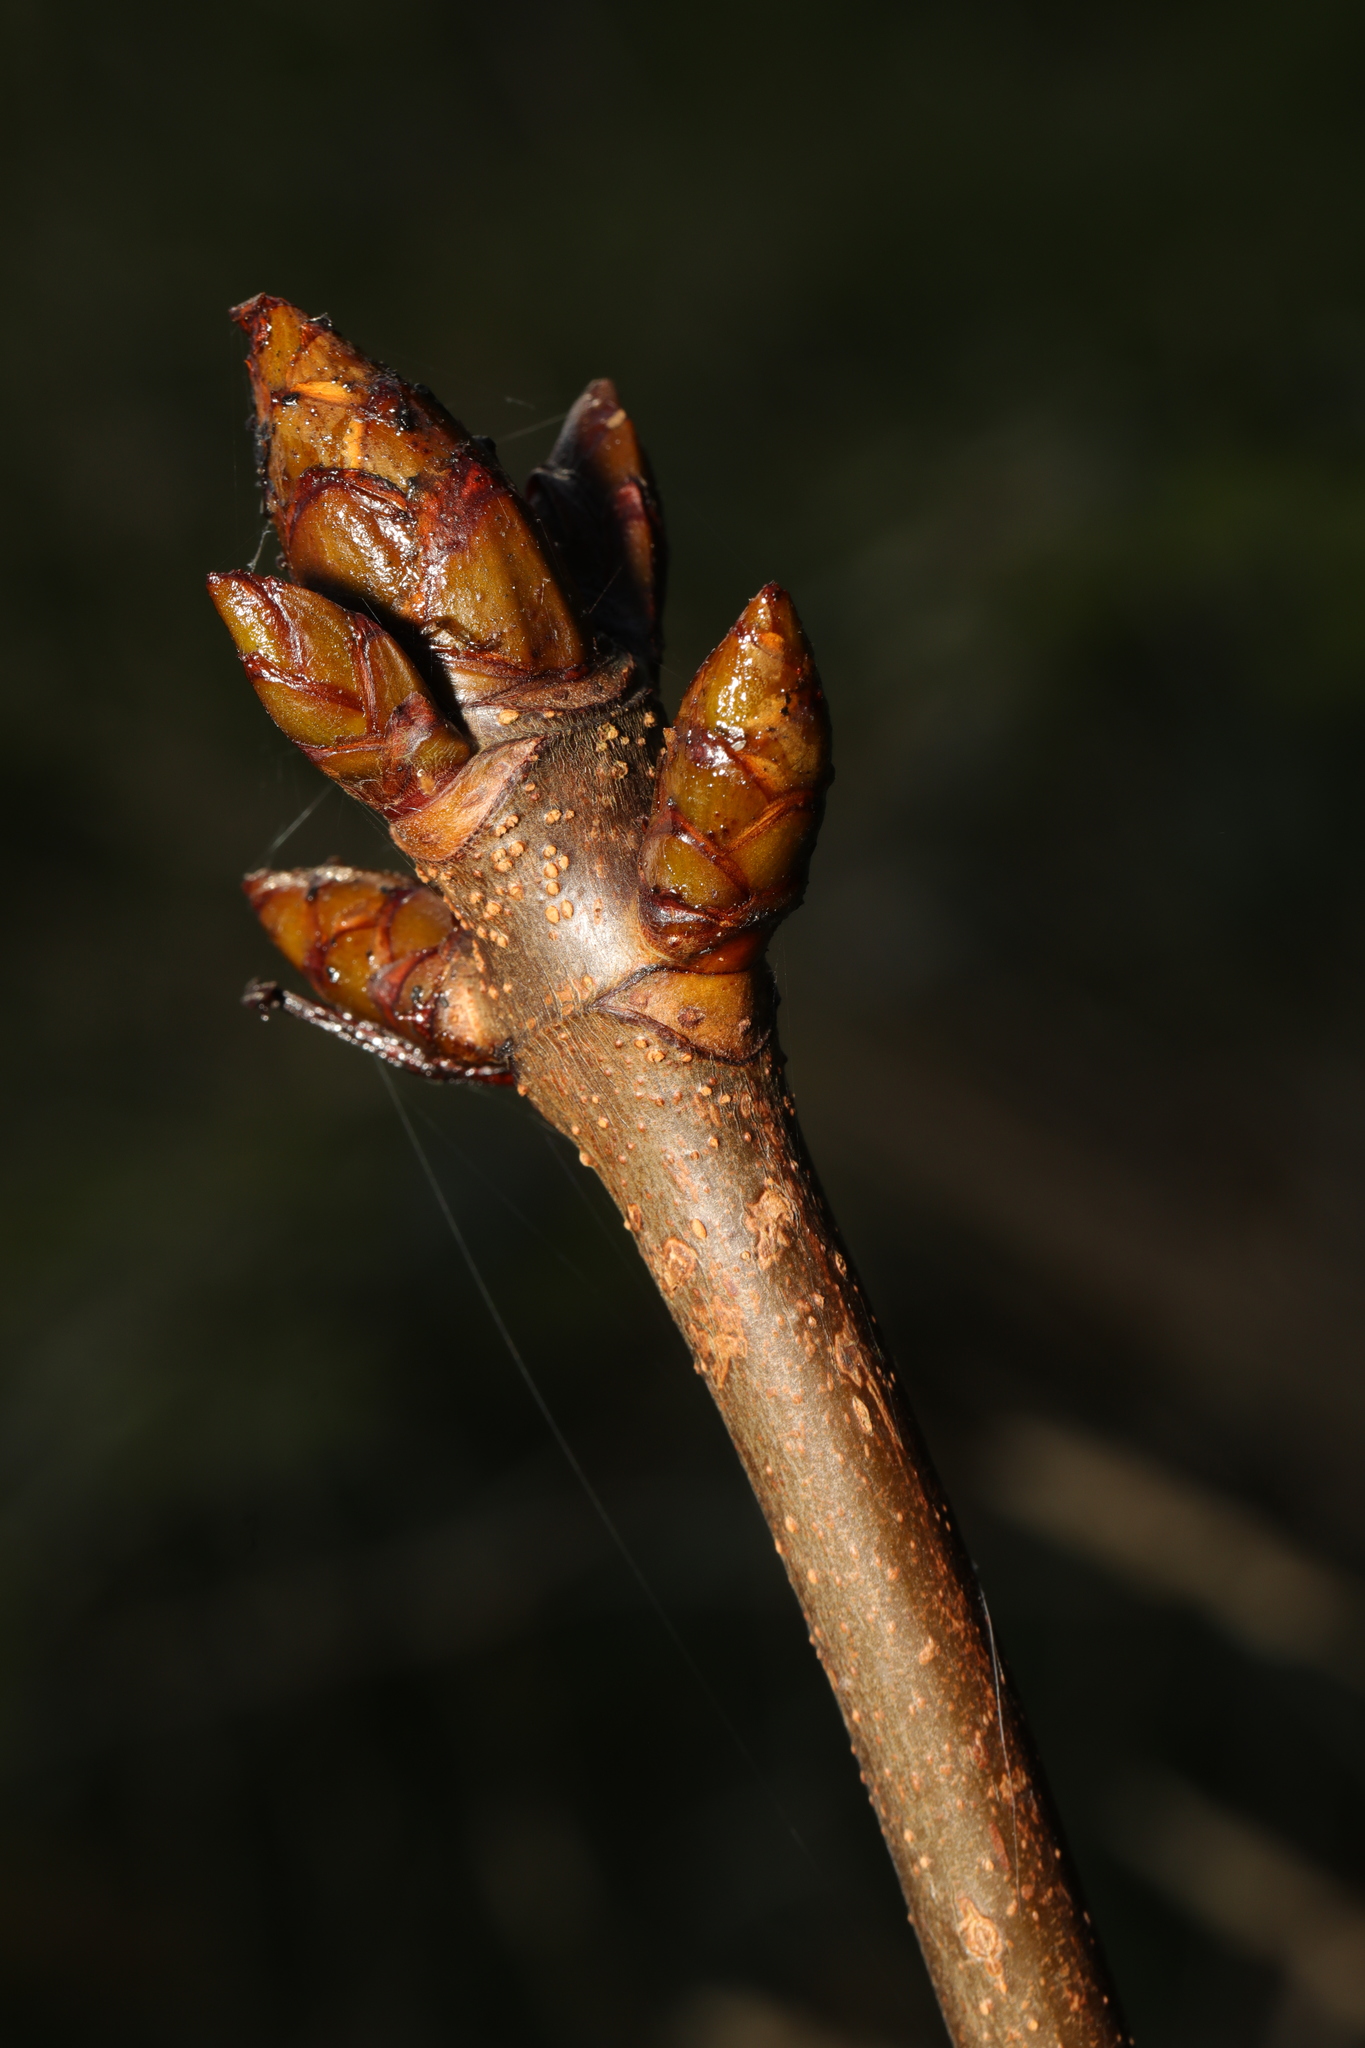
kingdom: Plantae
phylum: Tracheophyta
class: Magnoliopsida
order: Sapindales
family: Sapindaceae
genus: Aesculus
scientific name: Aesculus hippocastanum
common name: Horse-chestnut
